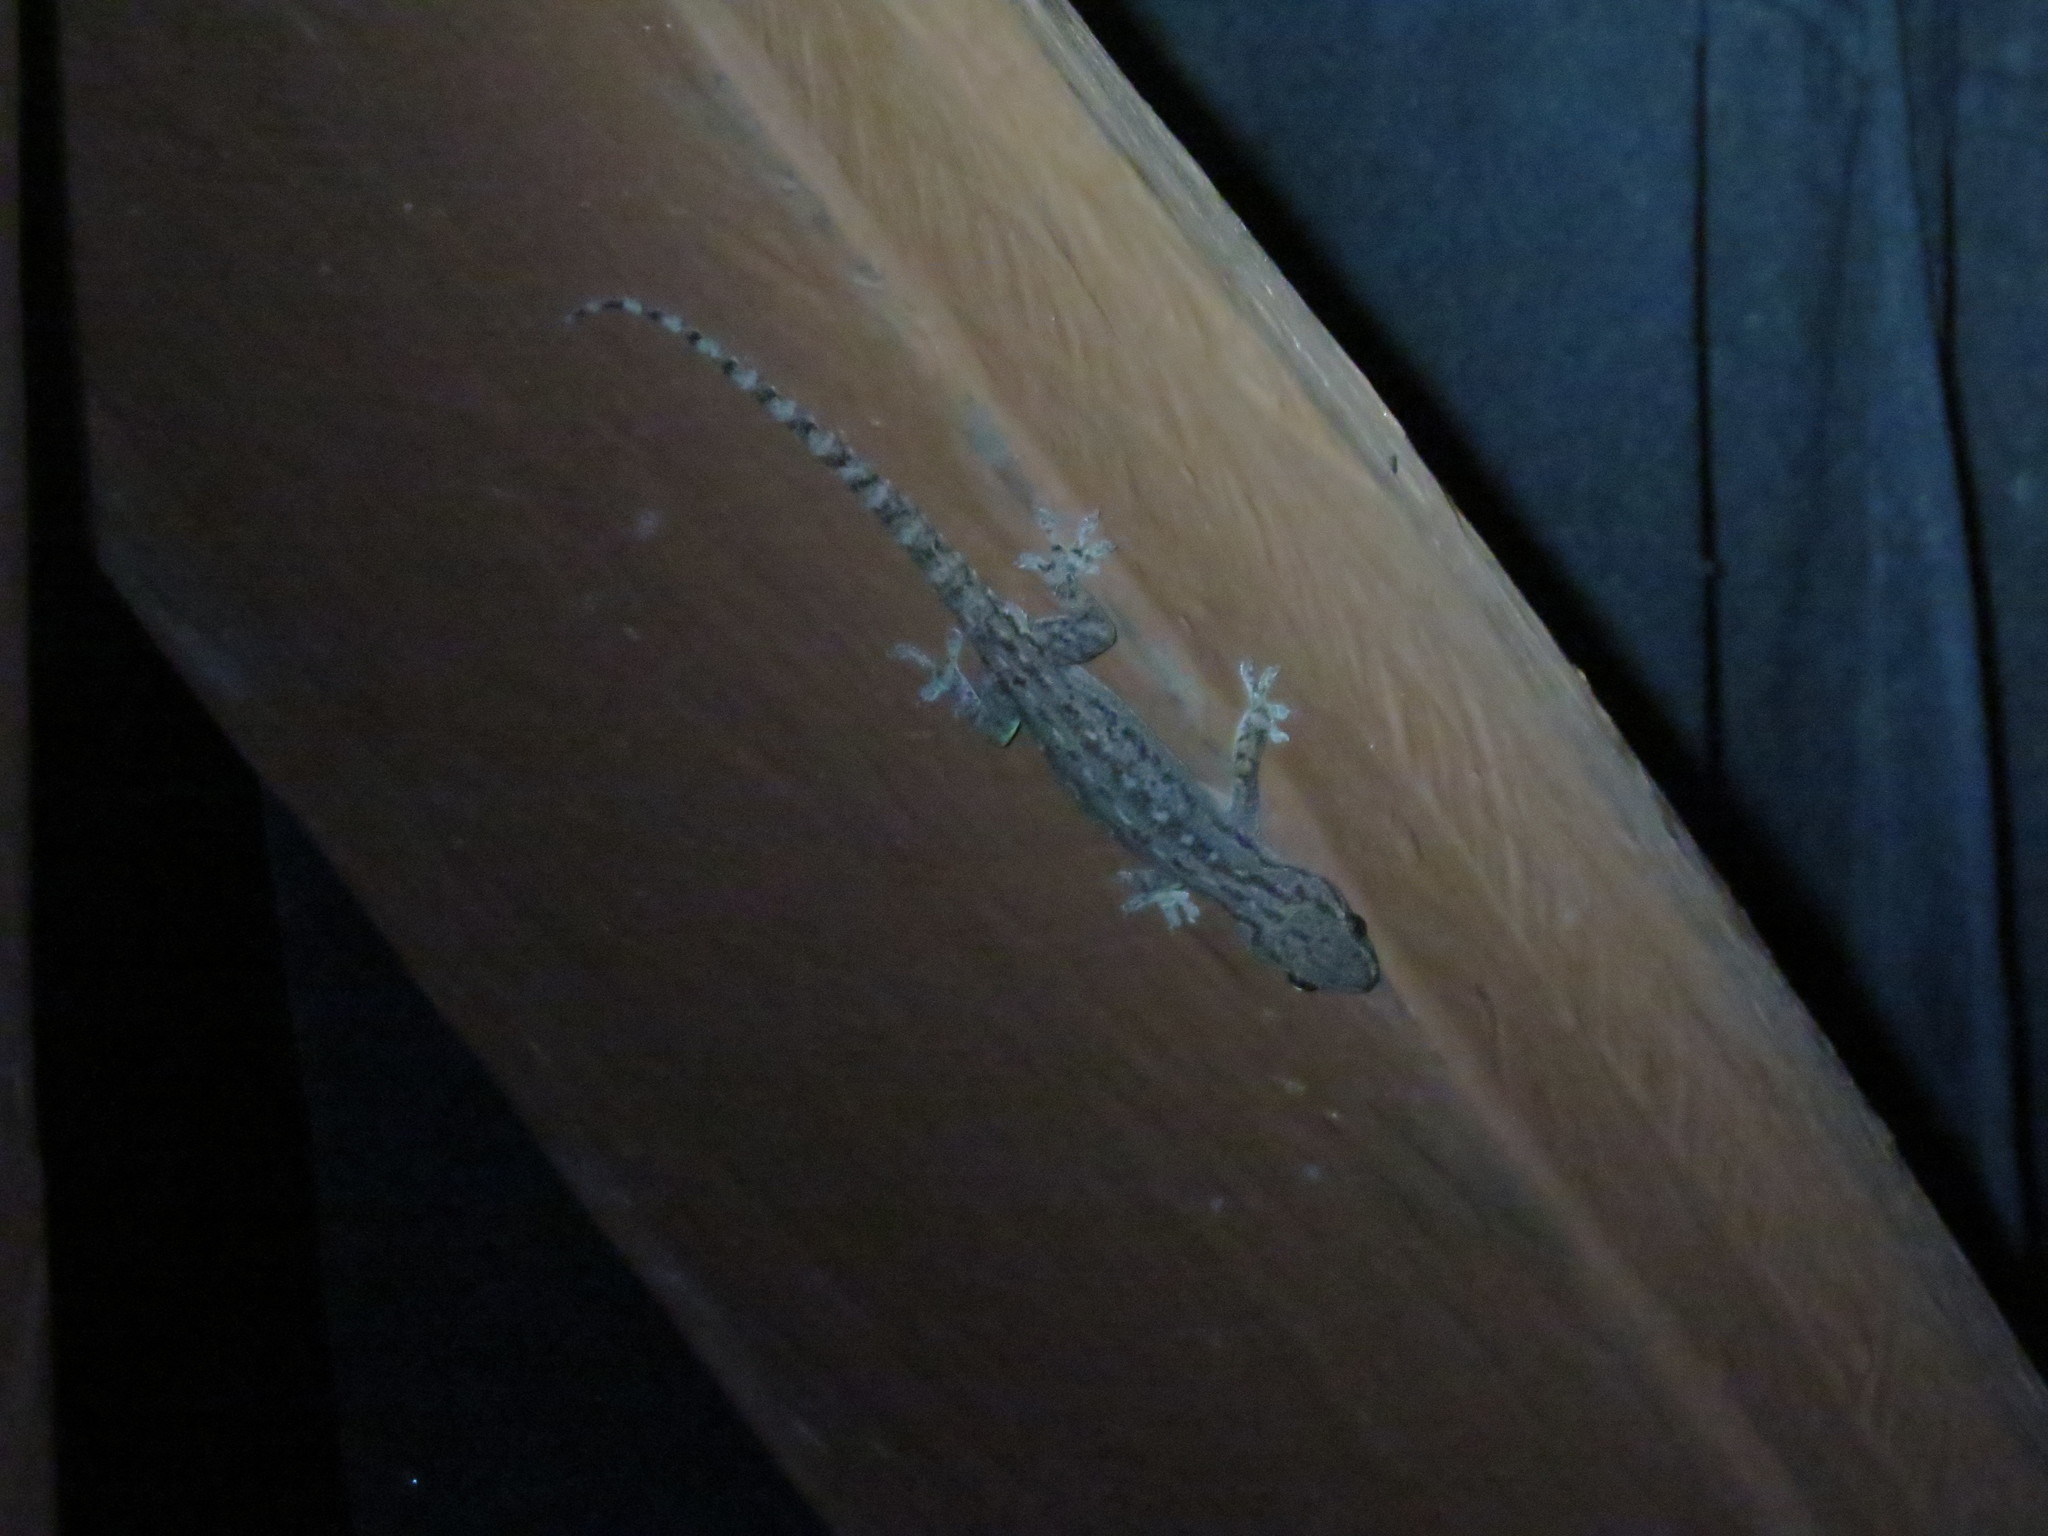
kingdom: Animalia
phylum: Chordata
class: Squamata
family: Gekkonidae
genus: Hemidactylus
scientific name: Hemidactylus garnotii
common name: Indo-pacific gecko
